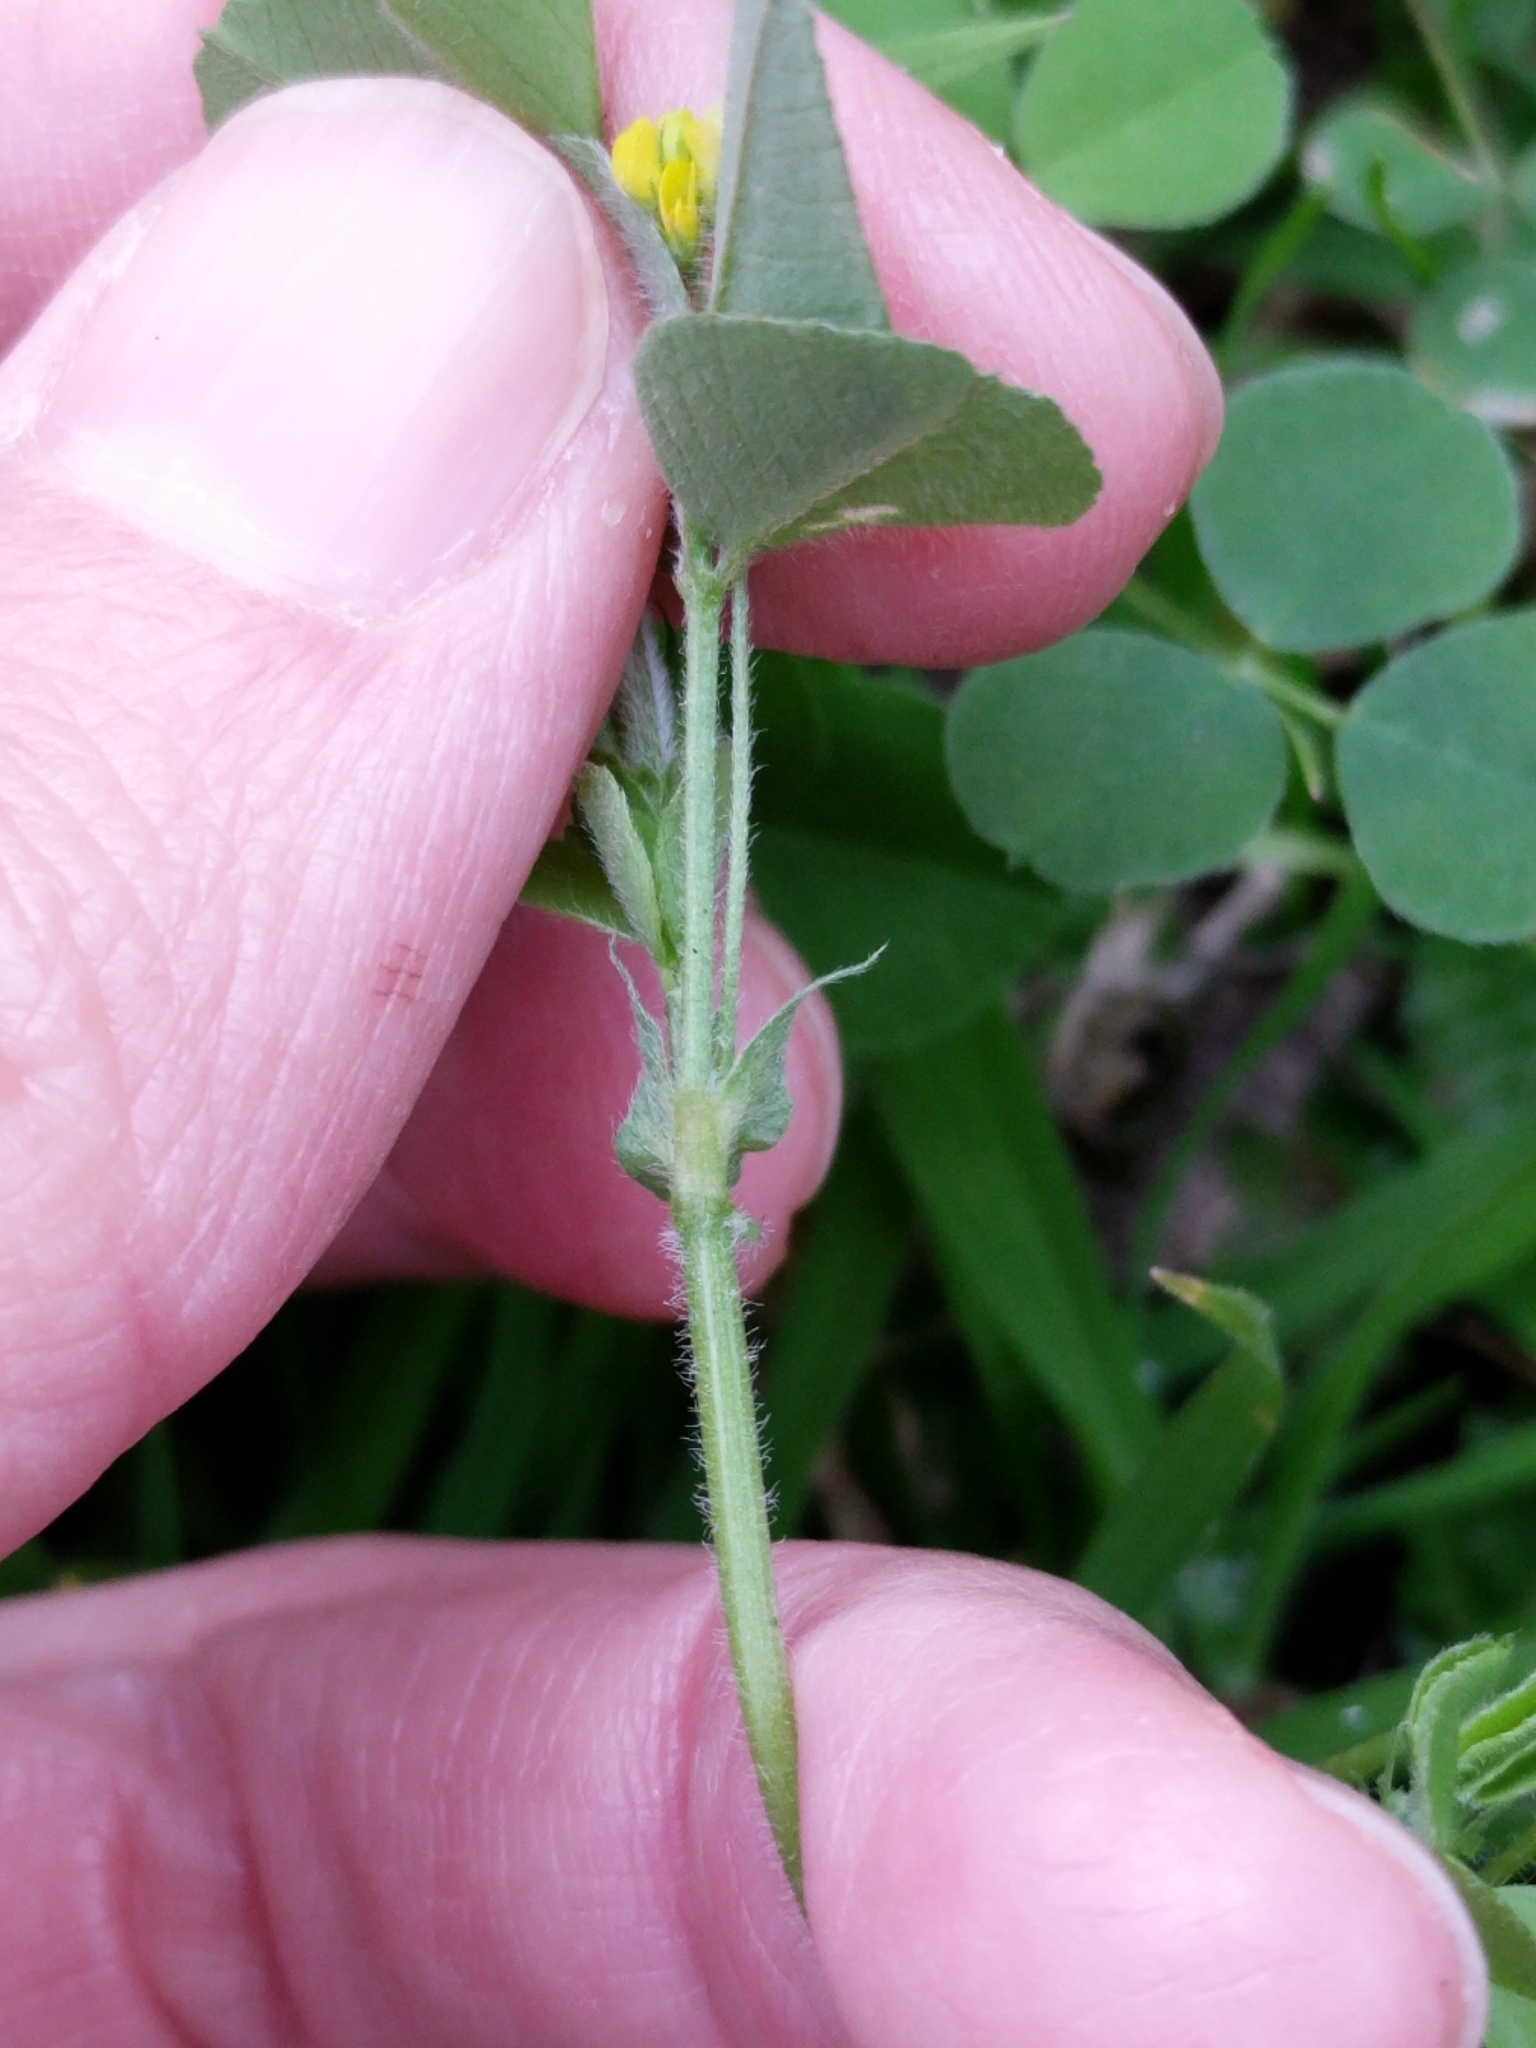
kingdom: Plantae
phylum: Tracheophyta
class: Magnoliopsida
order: Fabales
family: Fabaceae
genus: Medicago
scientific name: Medicago lupulina
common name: Black medick
